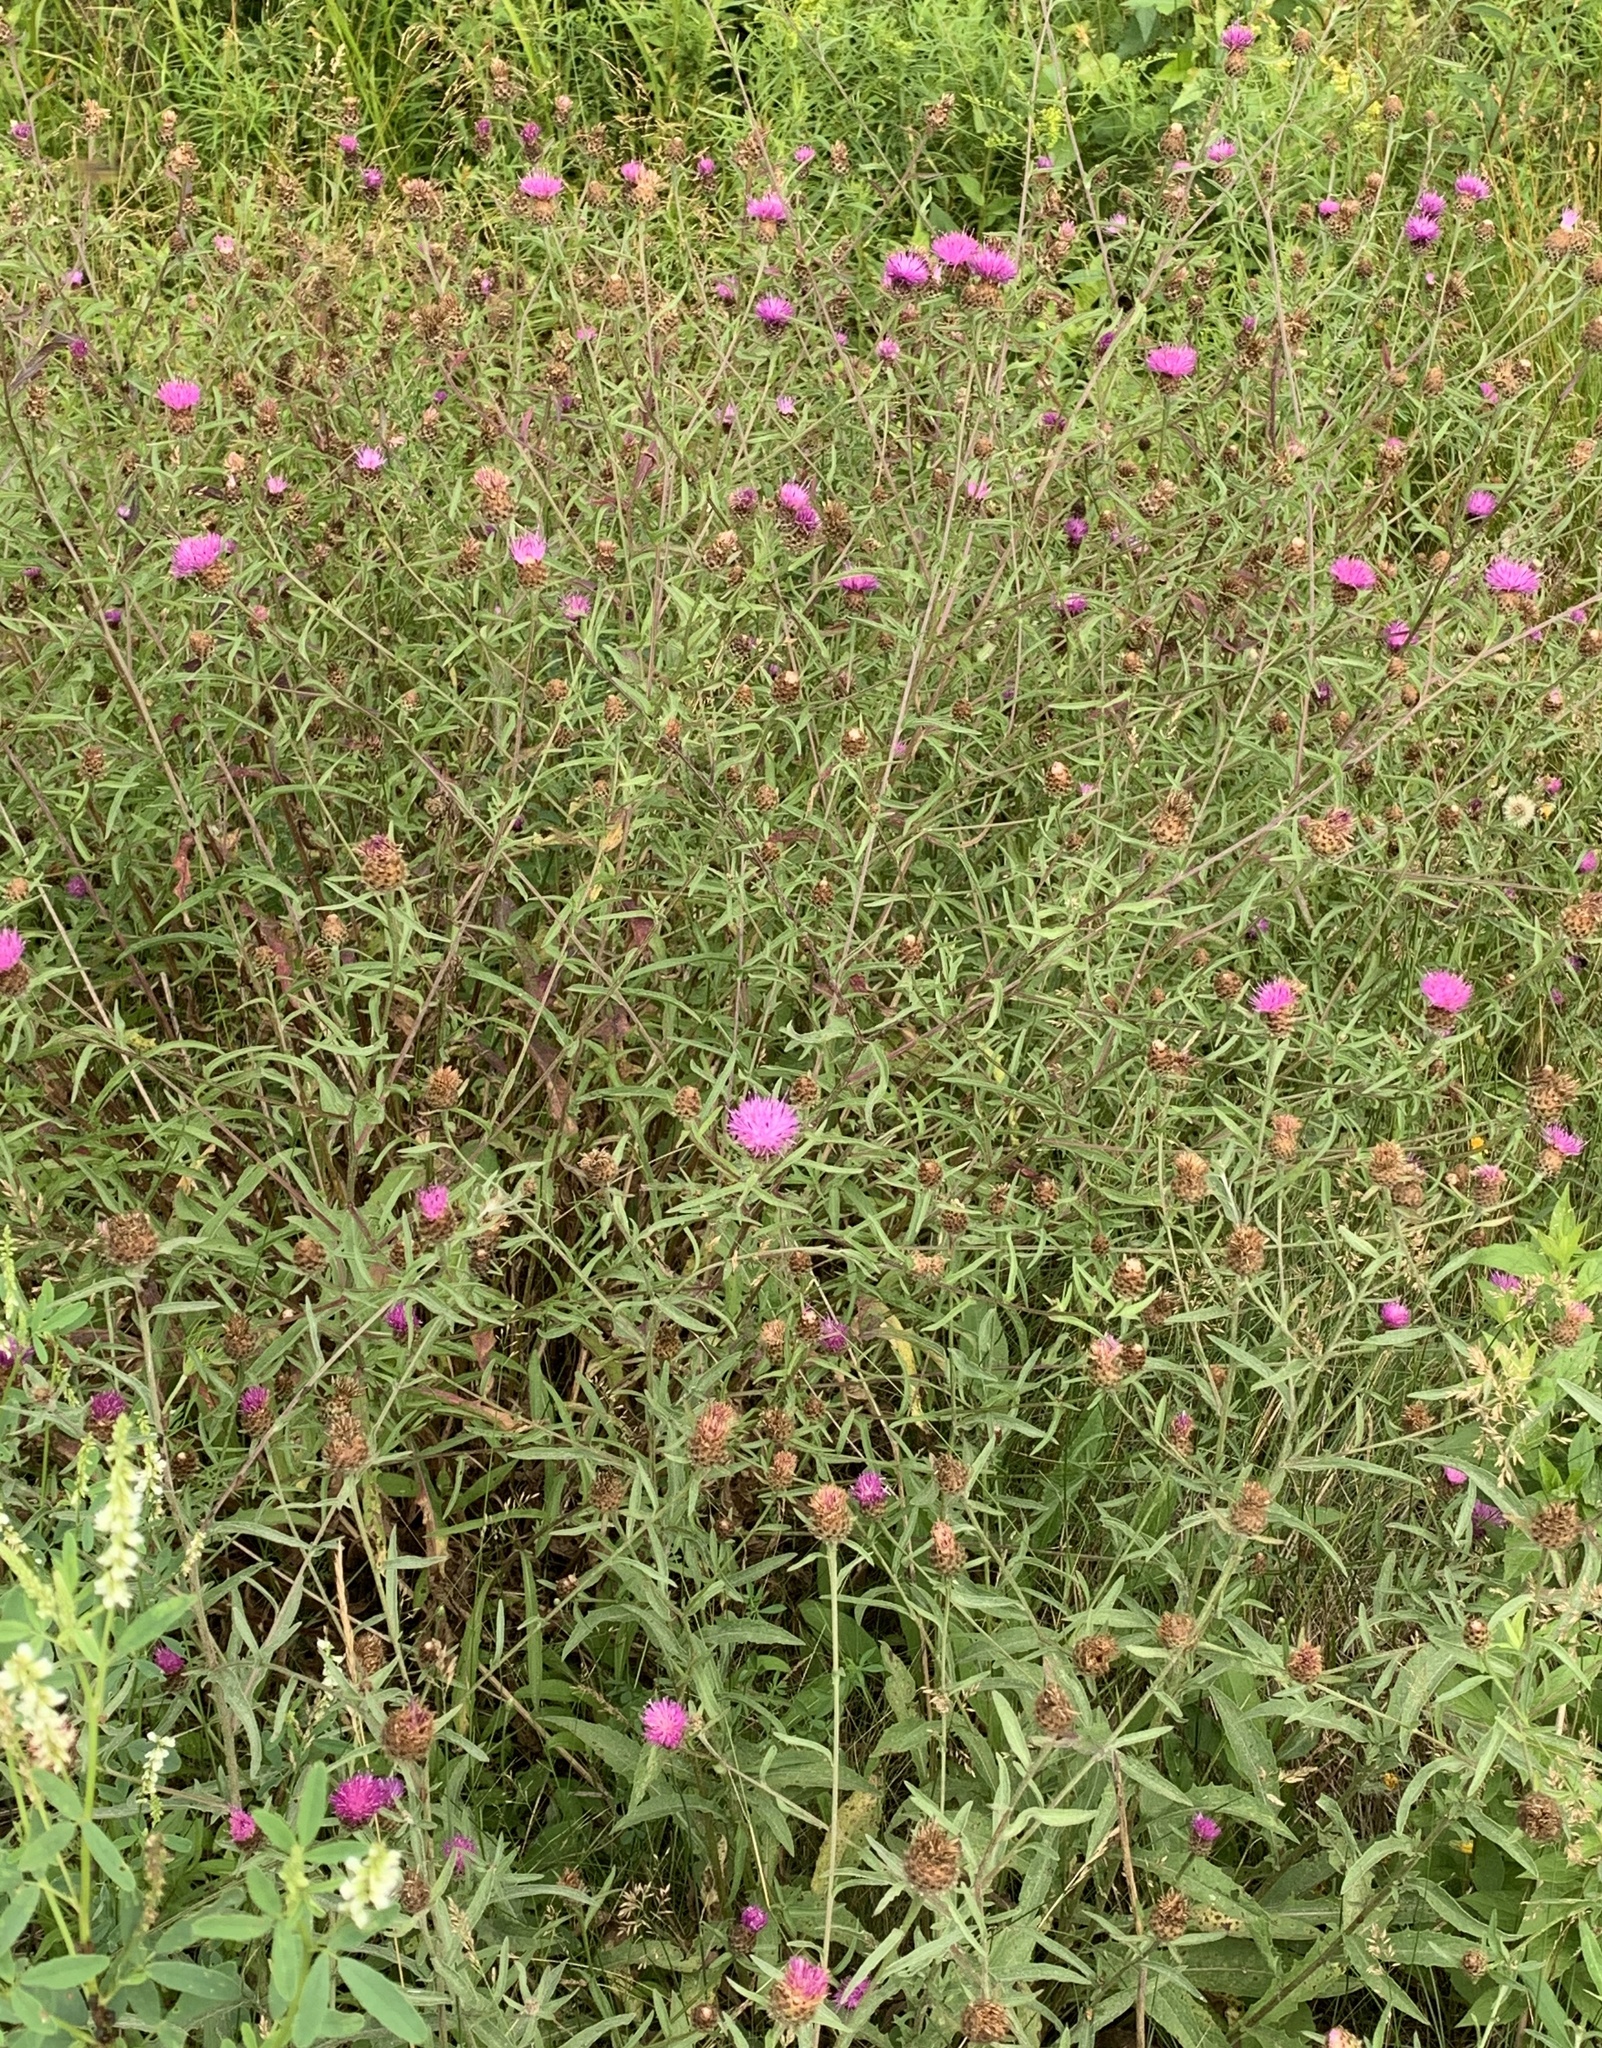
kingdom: Plantae
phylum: Tracheophyta
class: Magnoliopsida
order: Asterales
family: Asteraceae
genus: Centaurea
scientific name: Centaurea nigra
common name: Lesser knapweed
